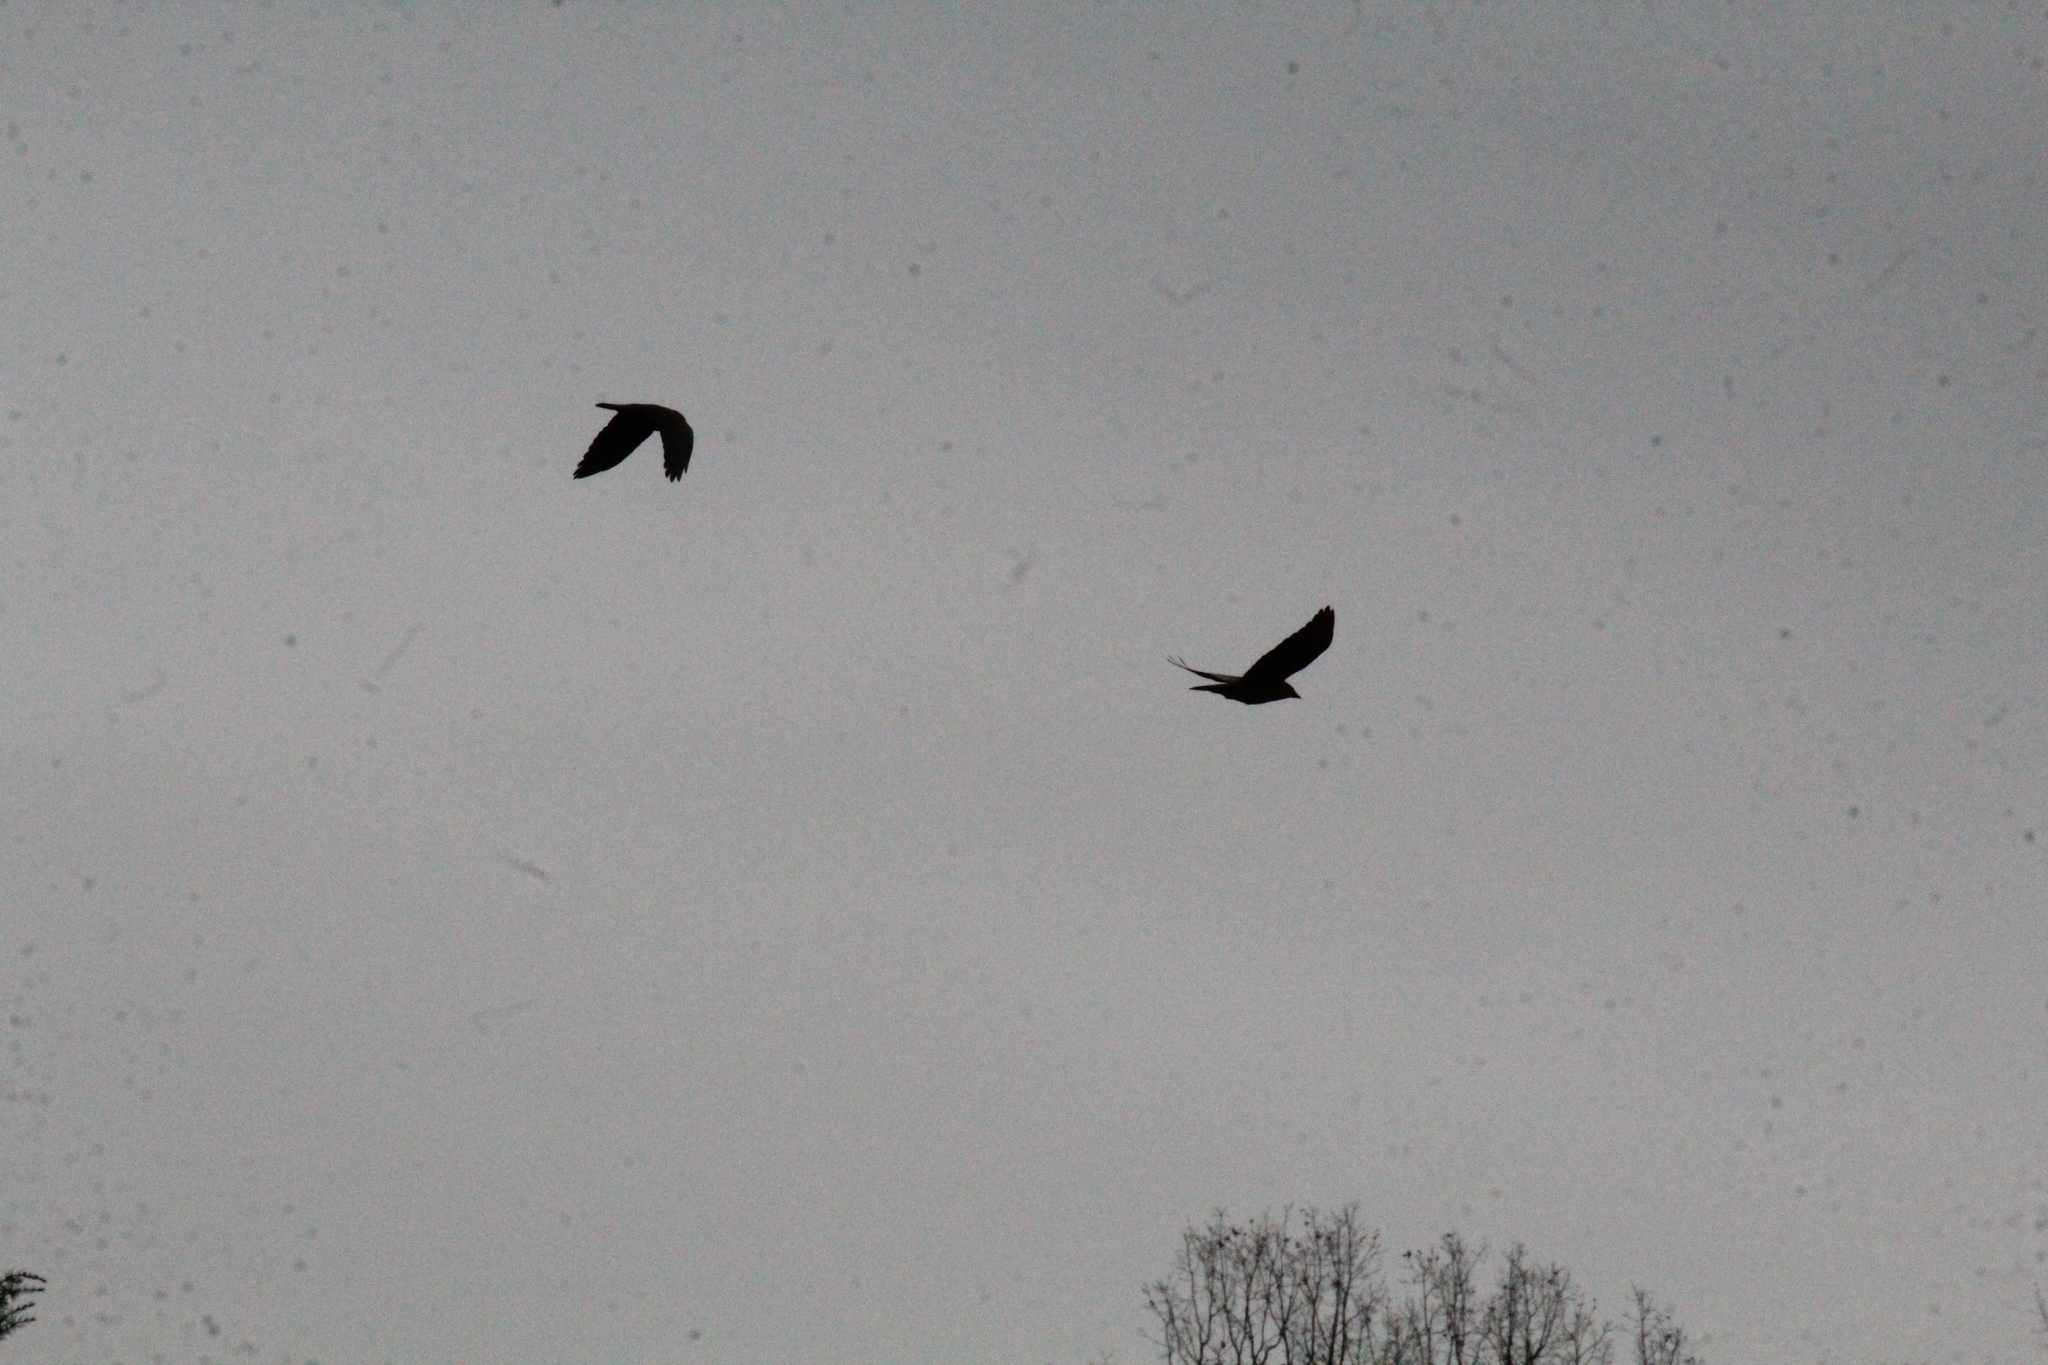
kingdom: Animalia
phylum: Chordata
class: Aves
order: Passeriformes
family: Corvidae
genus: Coloeus
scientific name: Coloeus monedula
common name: Western jackdaw
